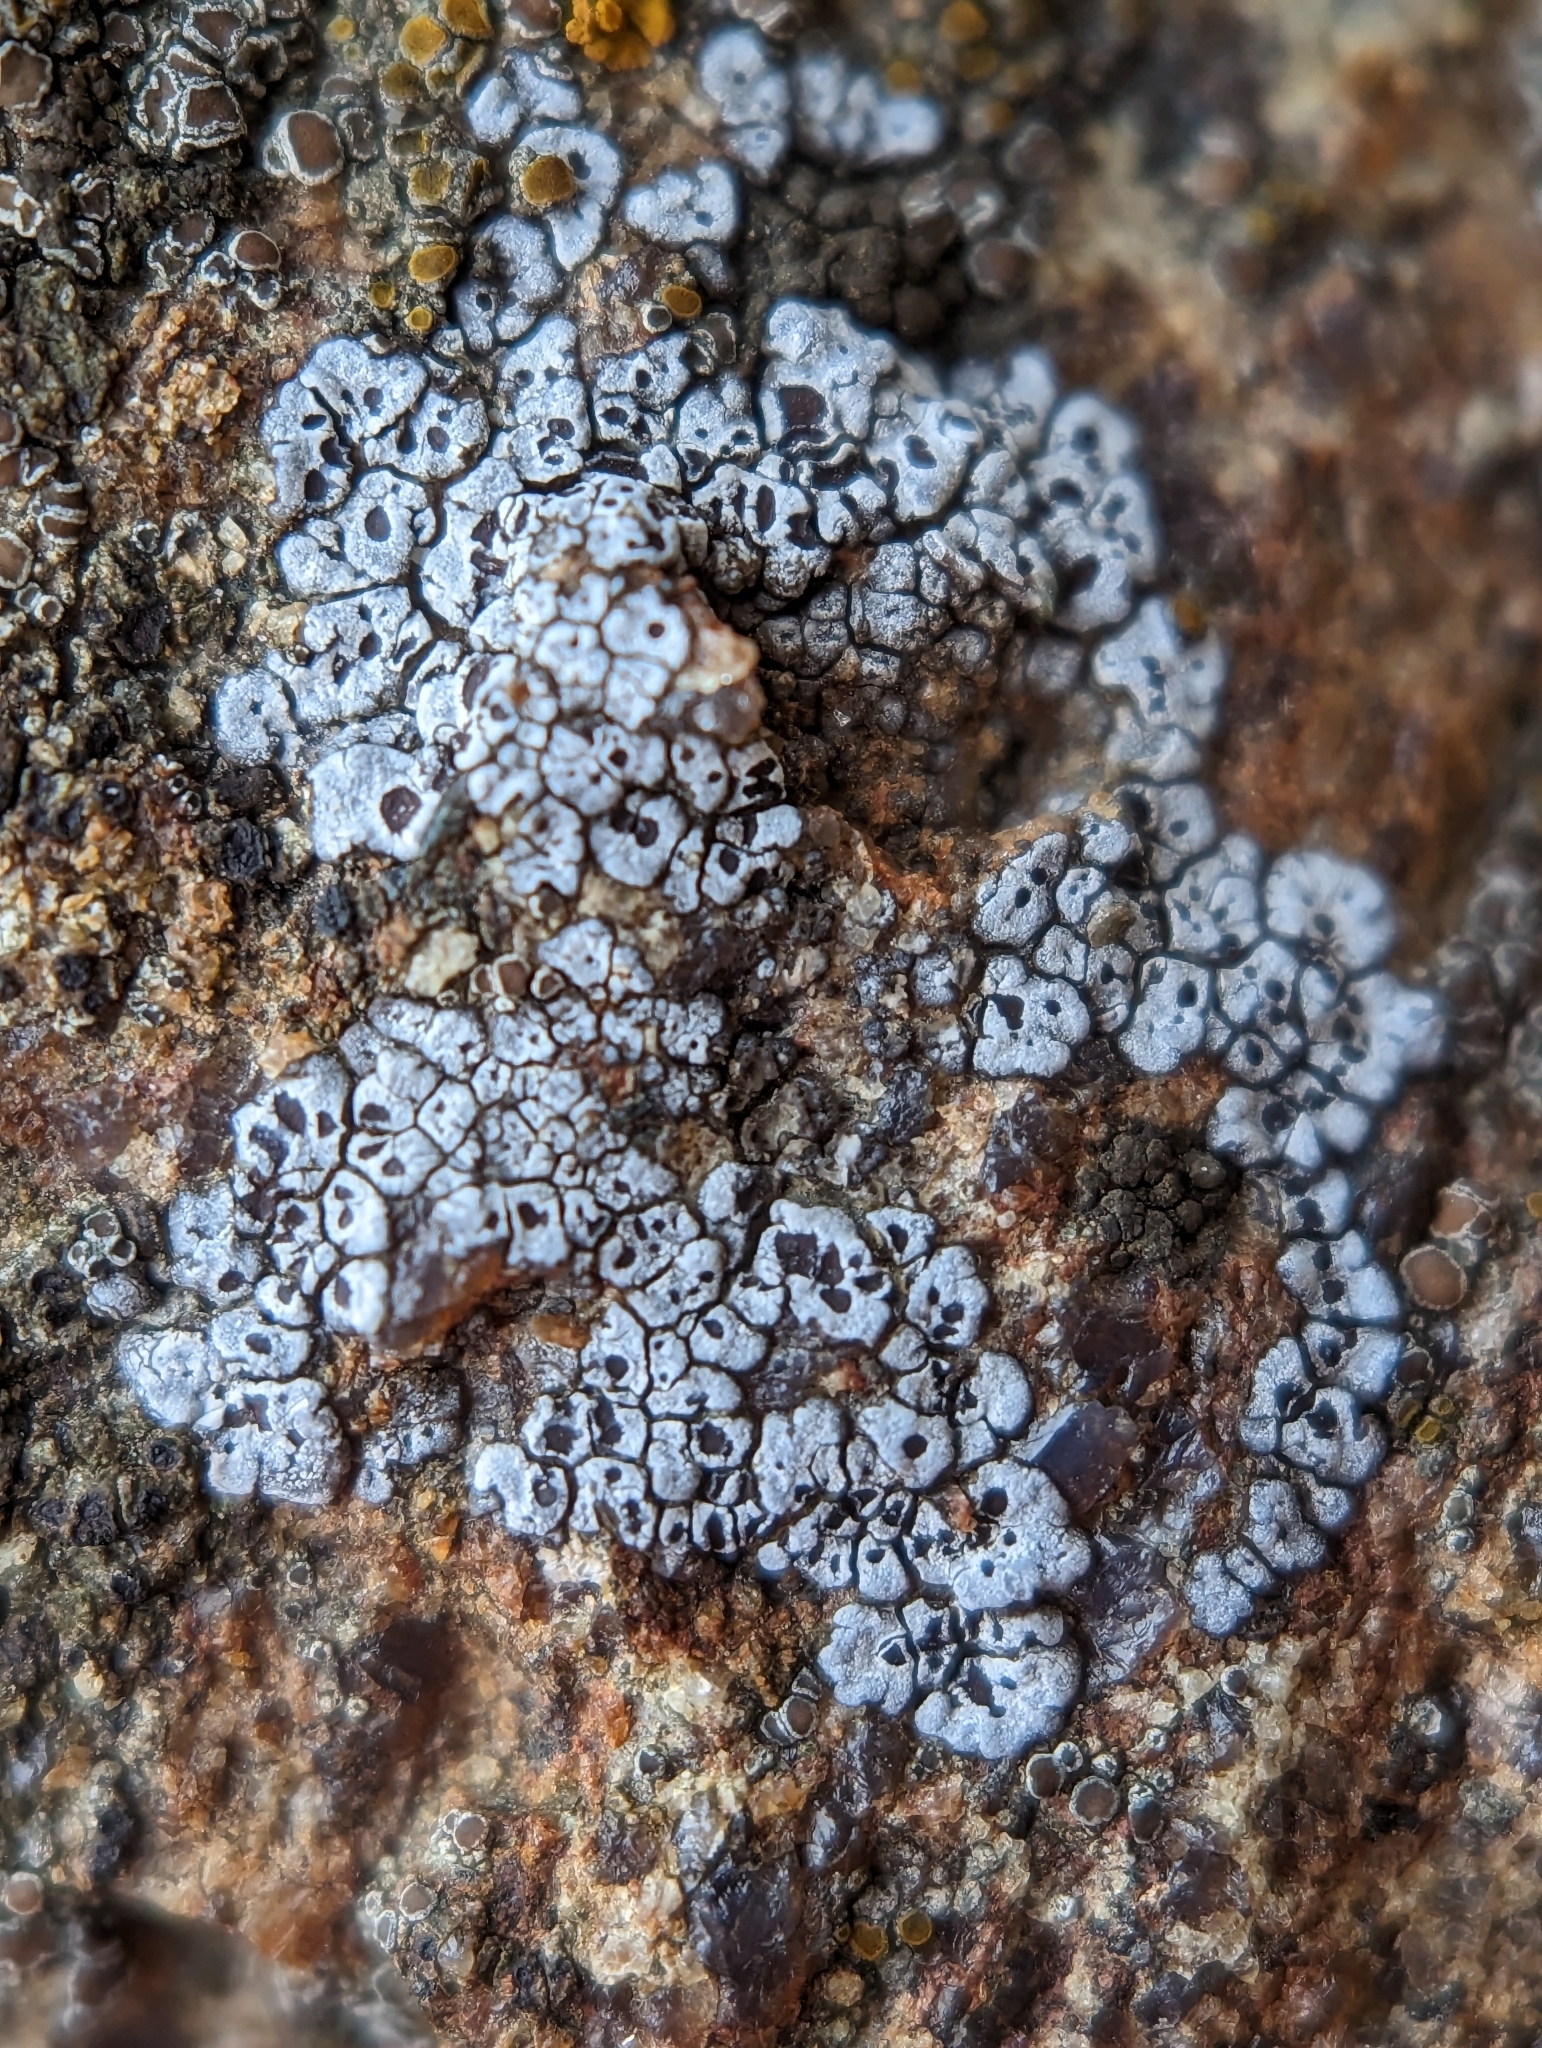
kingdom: Fungi
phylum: Ascomycota
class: Lecanoromycetes
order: Acarosporales
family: Acarosporaceae
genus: Acarospora
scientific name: Acarospora americana
